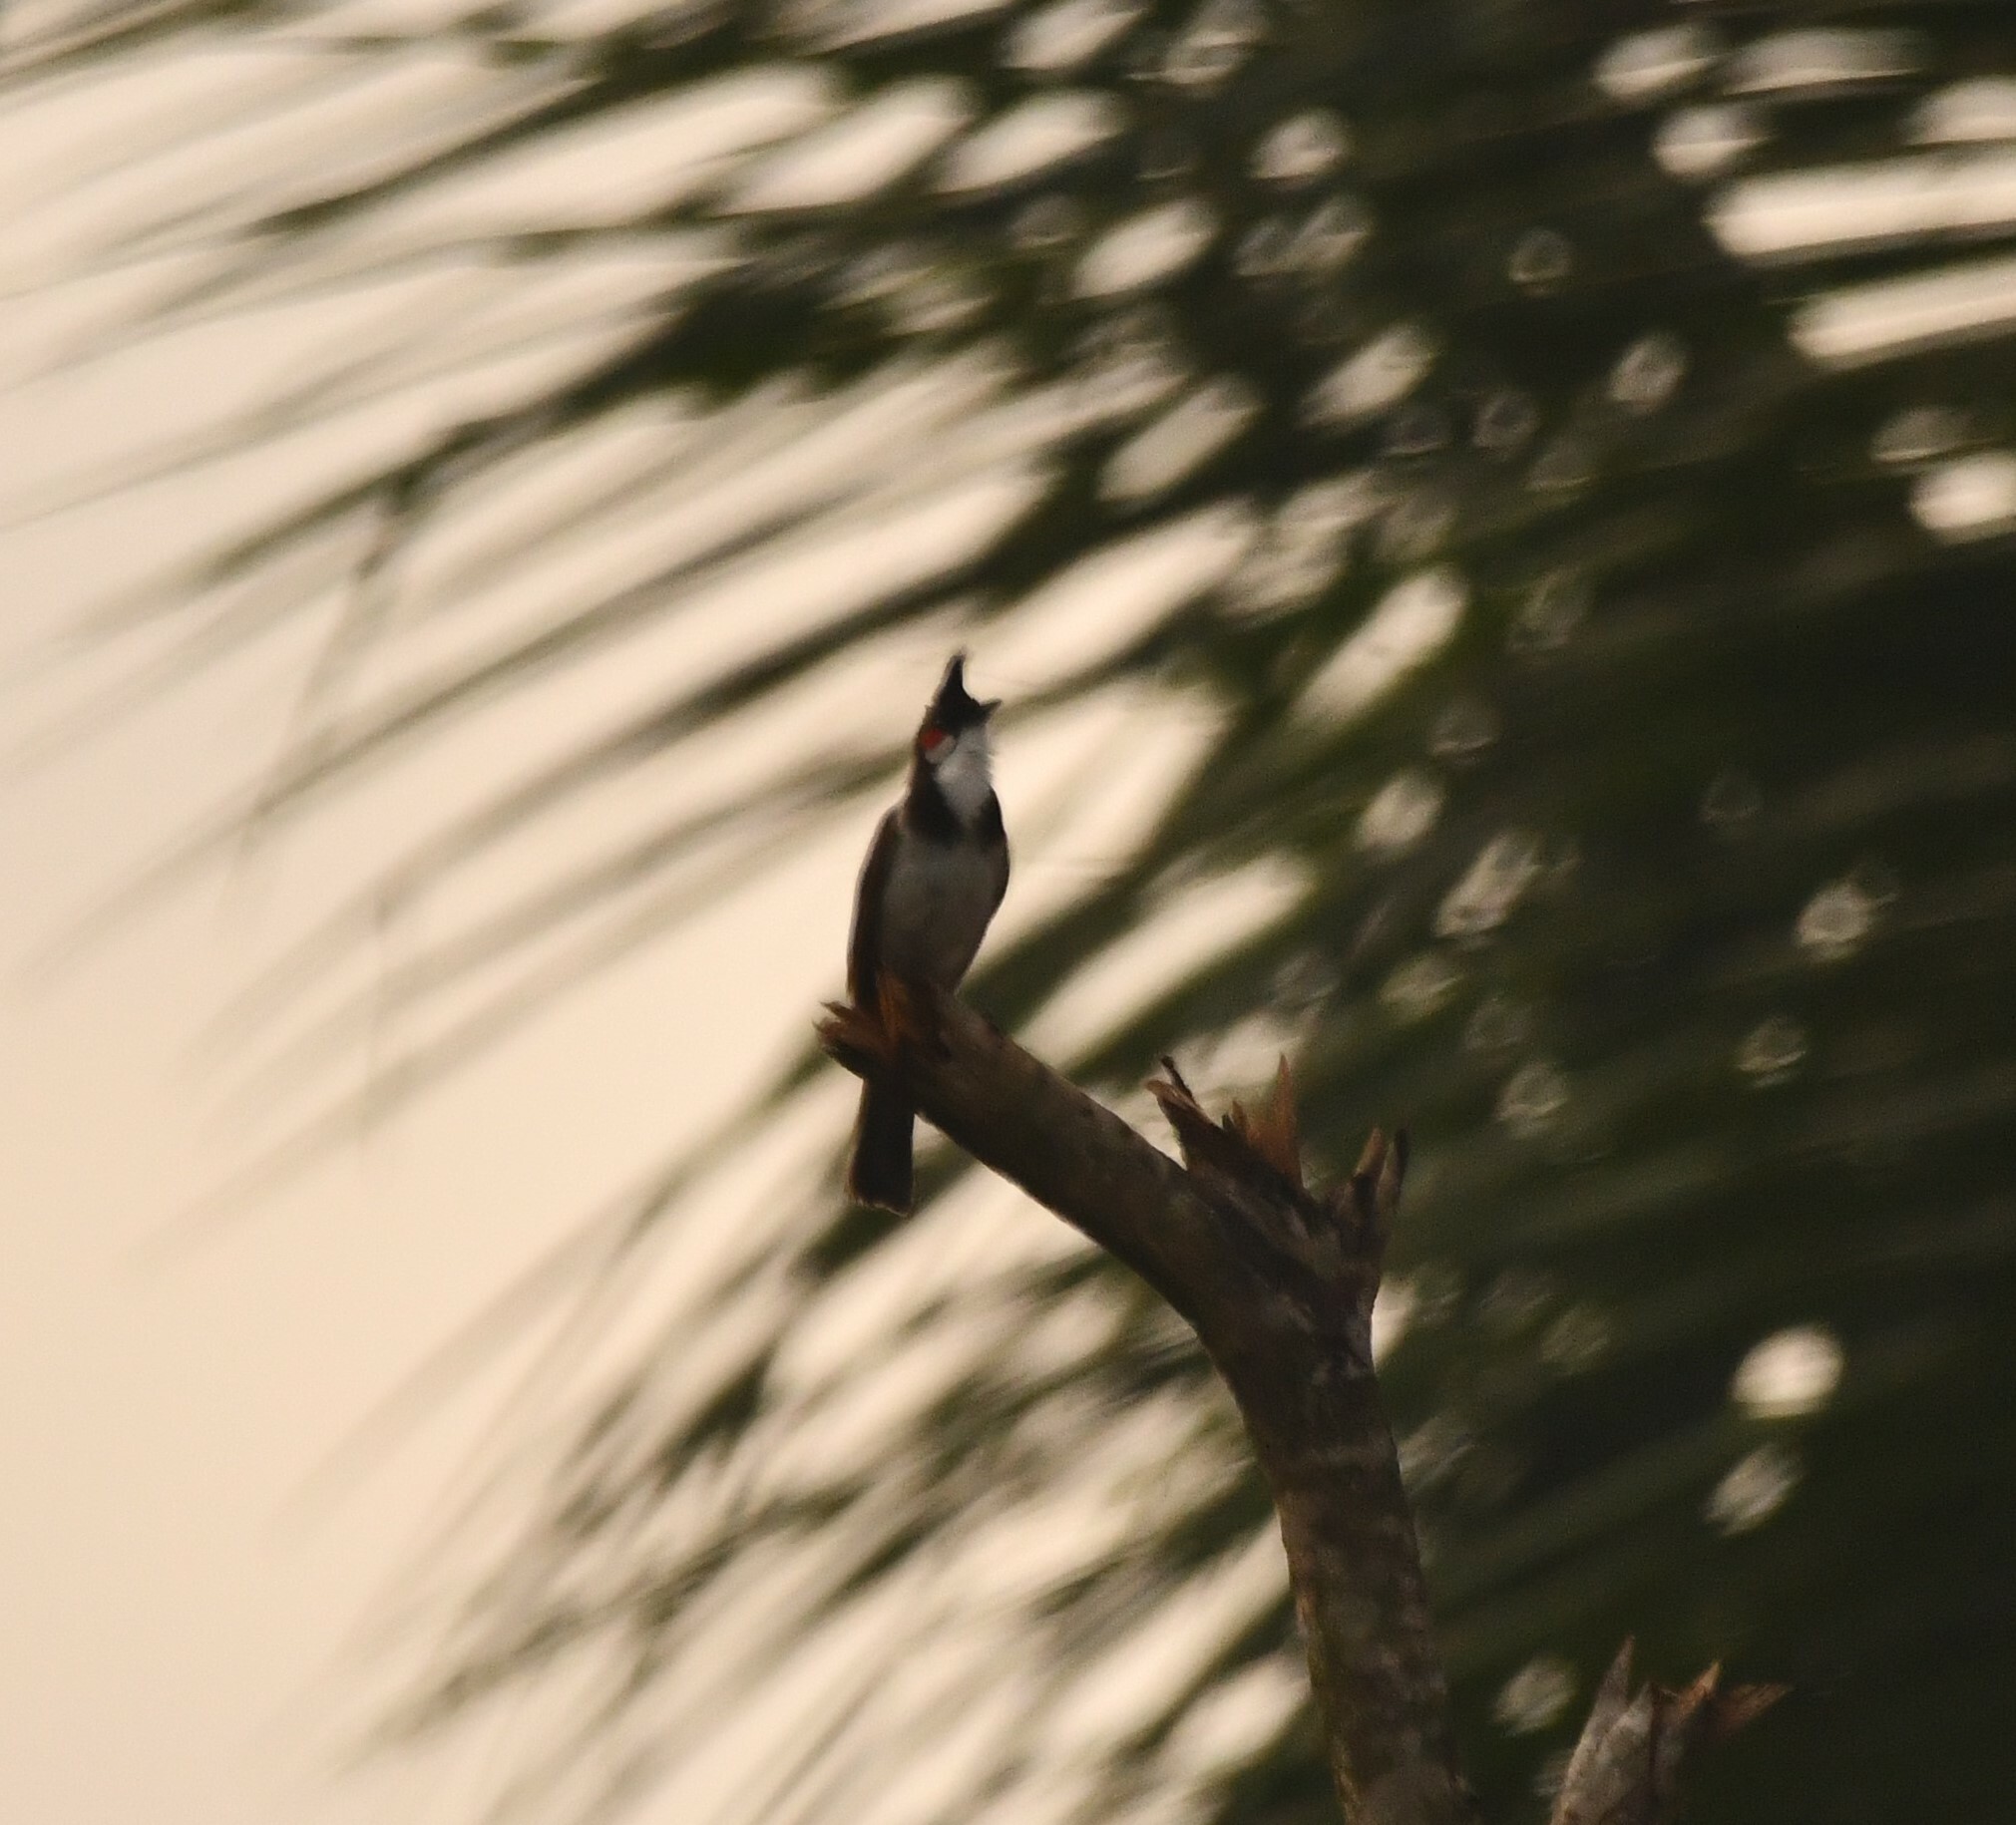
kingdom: Animalia
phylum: Chordata
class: Aves
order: Passeriformes
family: Pycnonotidae
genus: Pycnonotus
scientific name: Pycnonotus jocosus
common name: Red-whiskered bulbul
